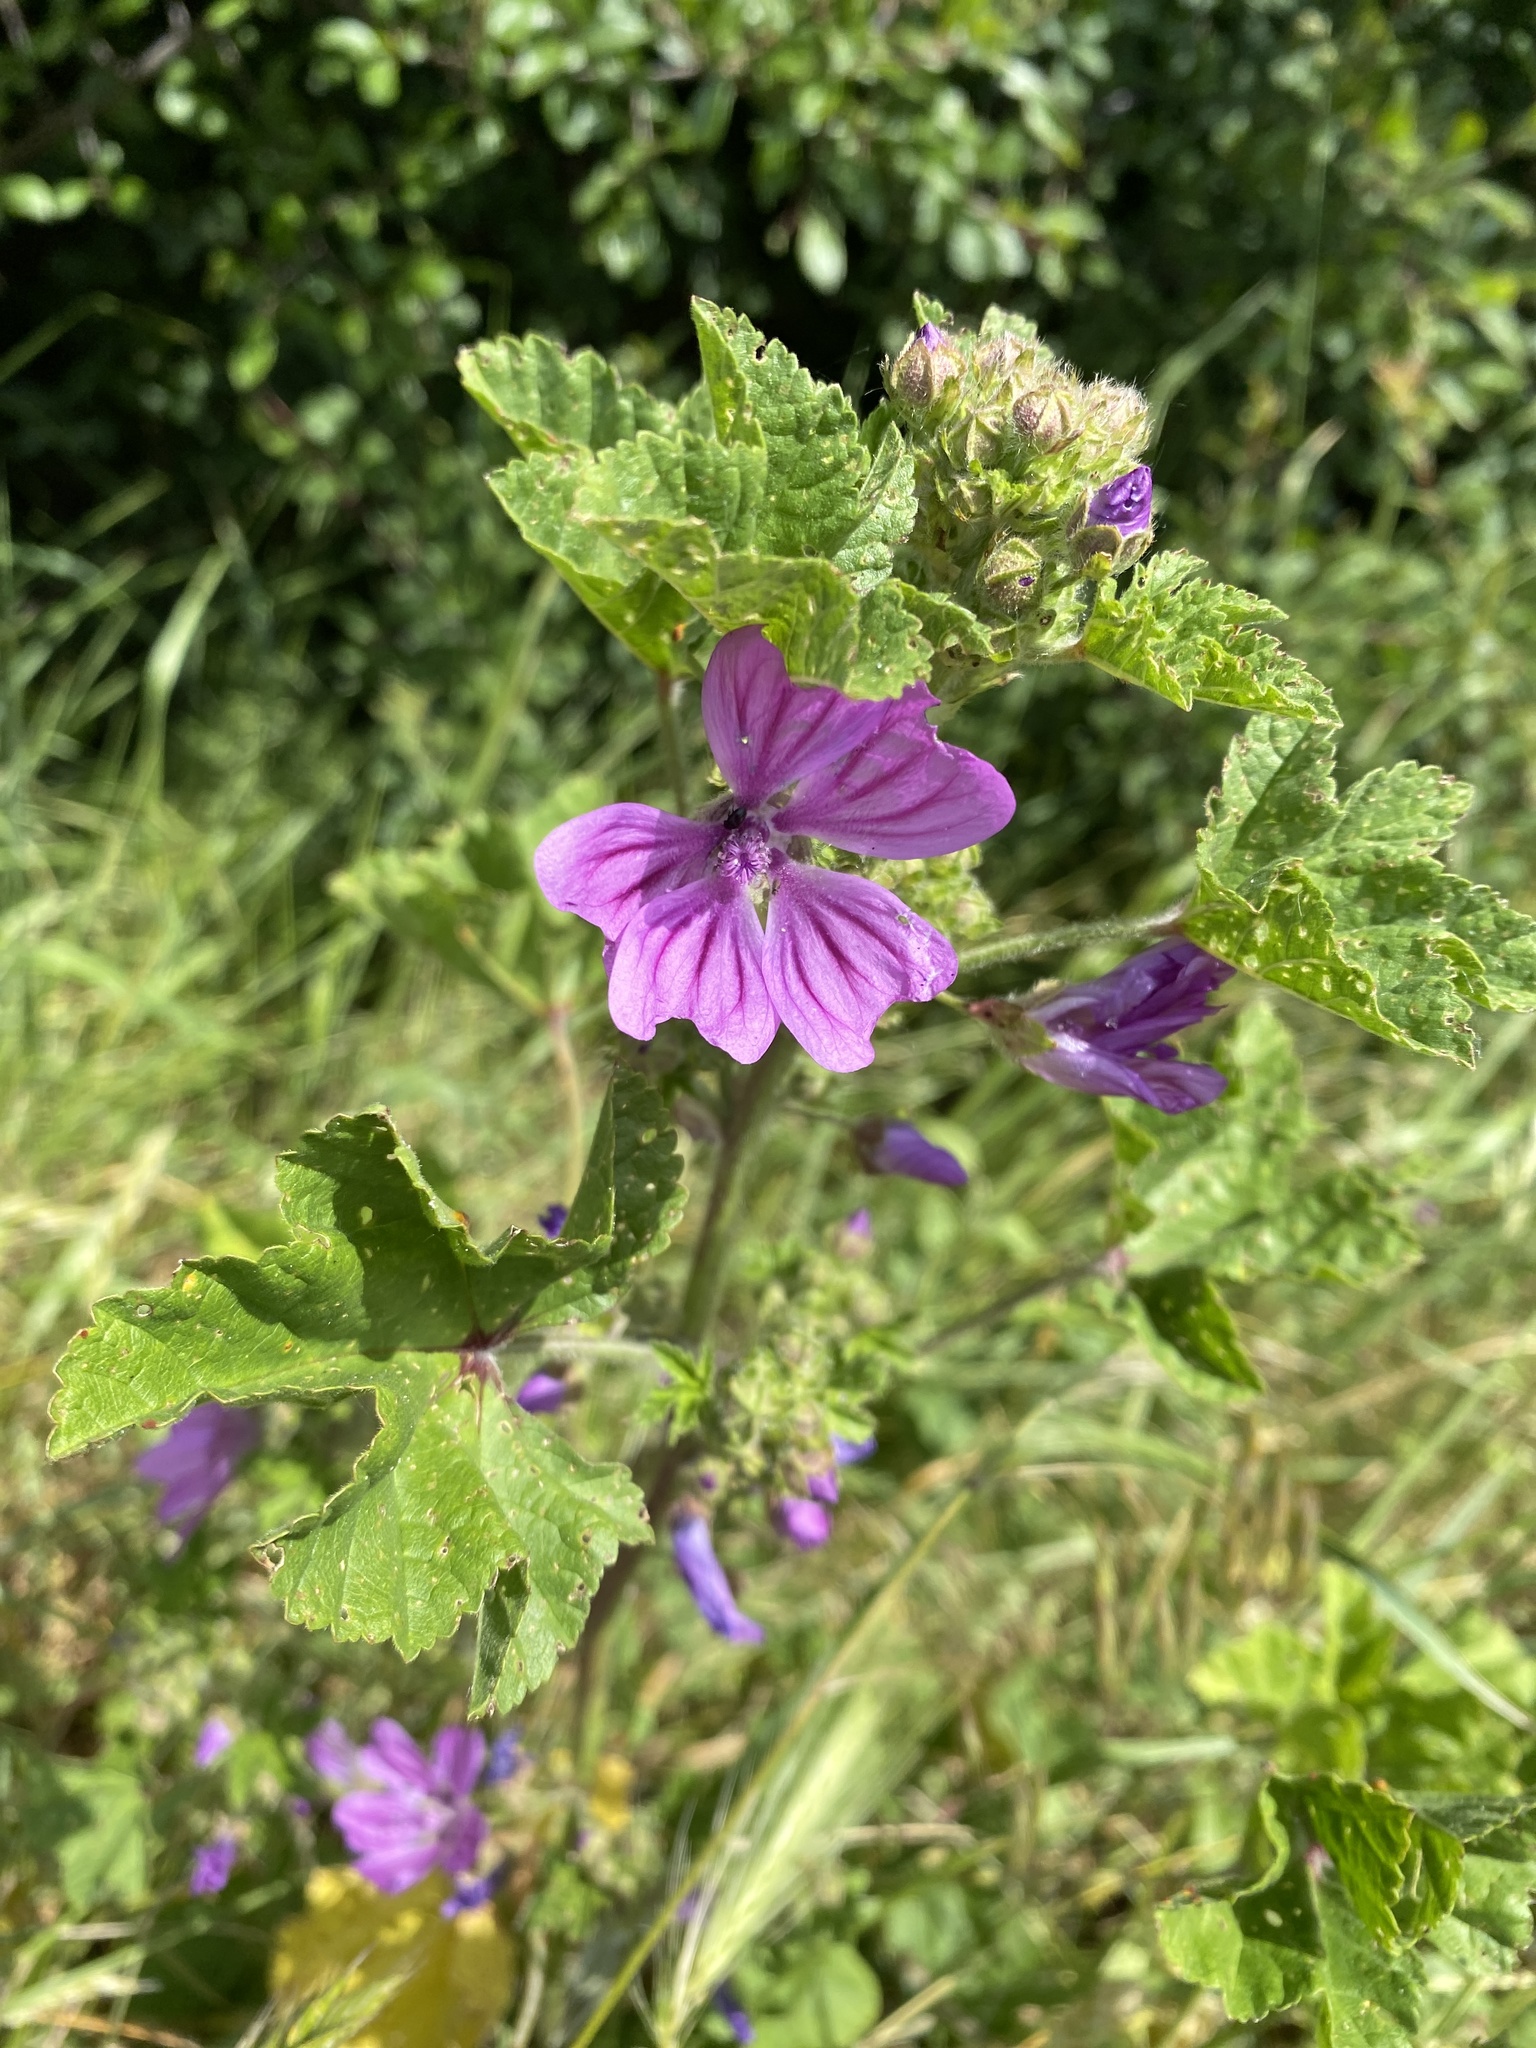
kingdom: Plantae
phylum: Tracheophyta
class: Magnoliopsida
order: Malvales
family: Malvaceae
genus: Malva
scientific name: Malva sylvestris
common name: Common mallow
